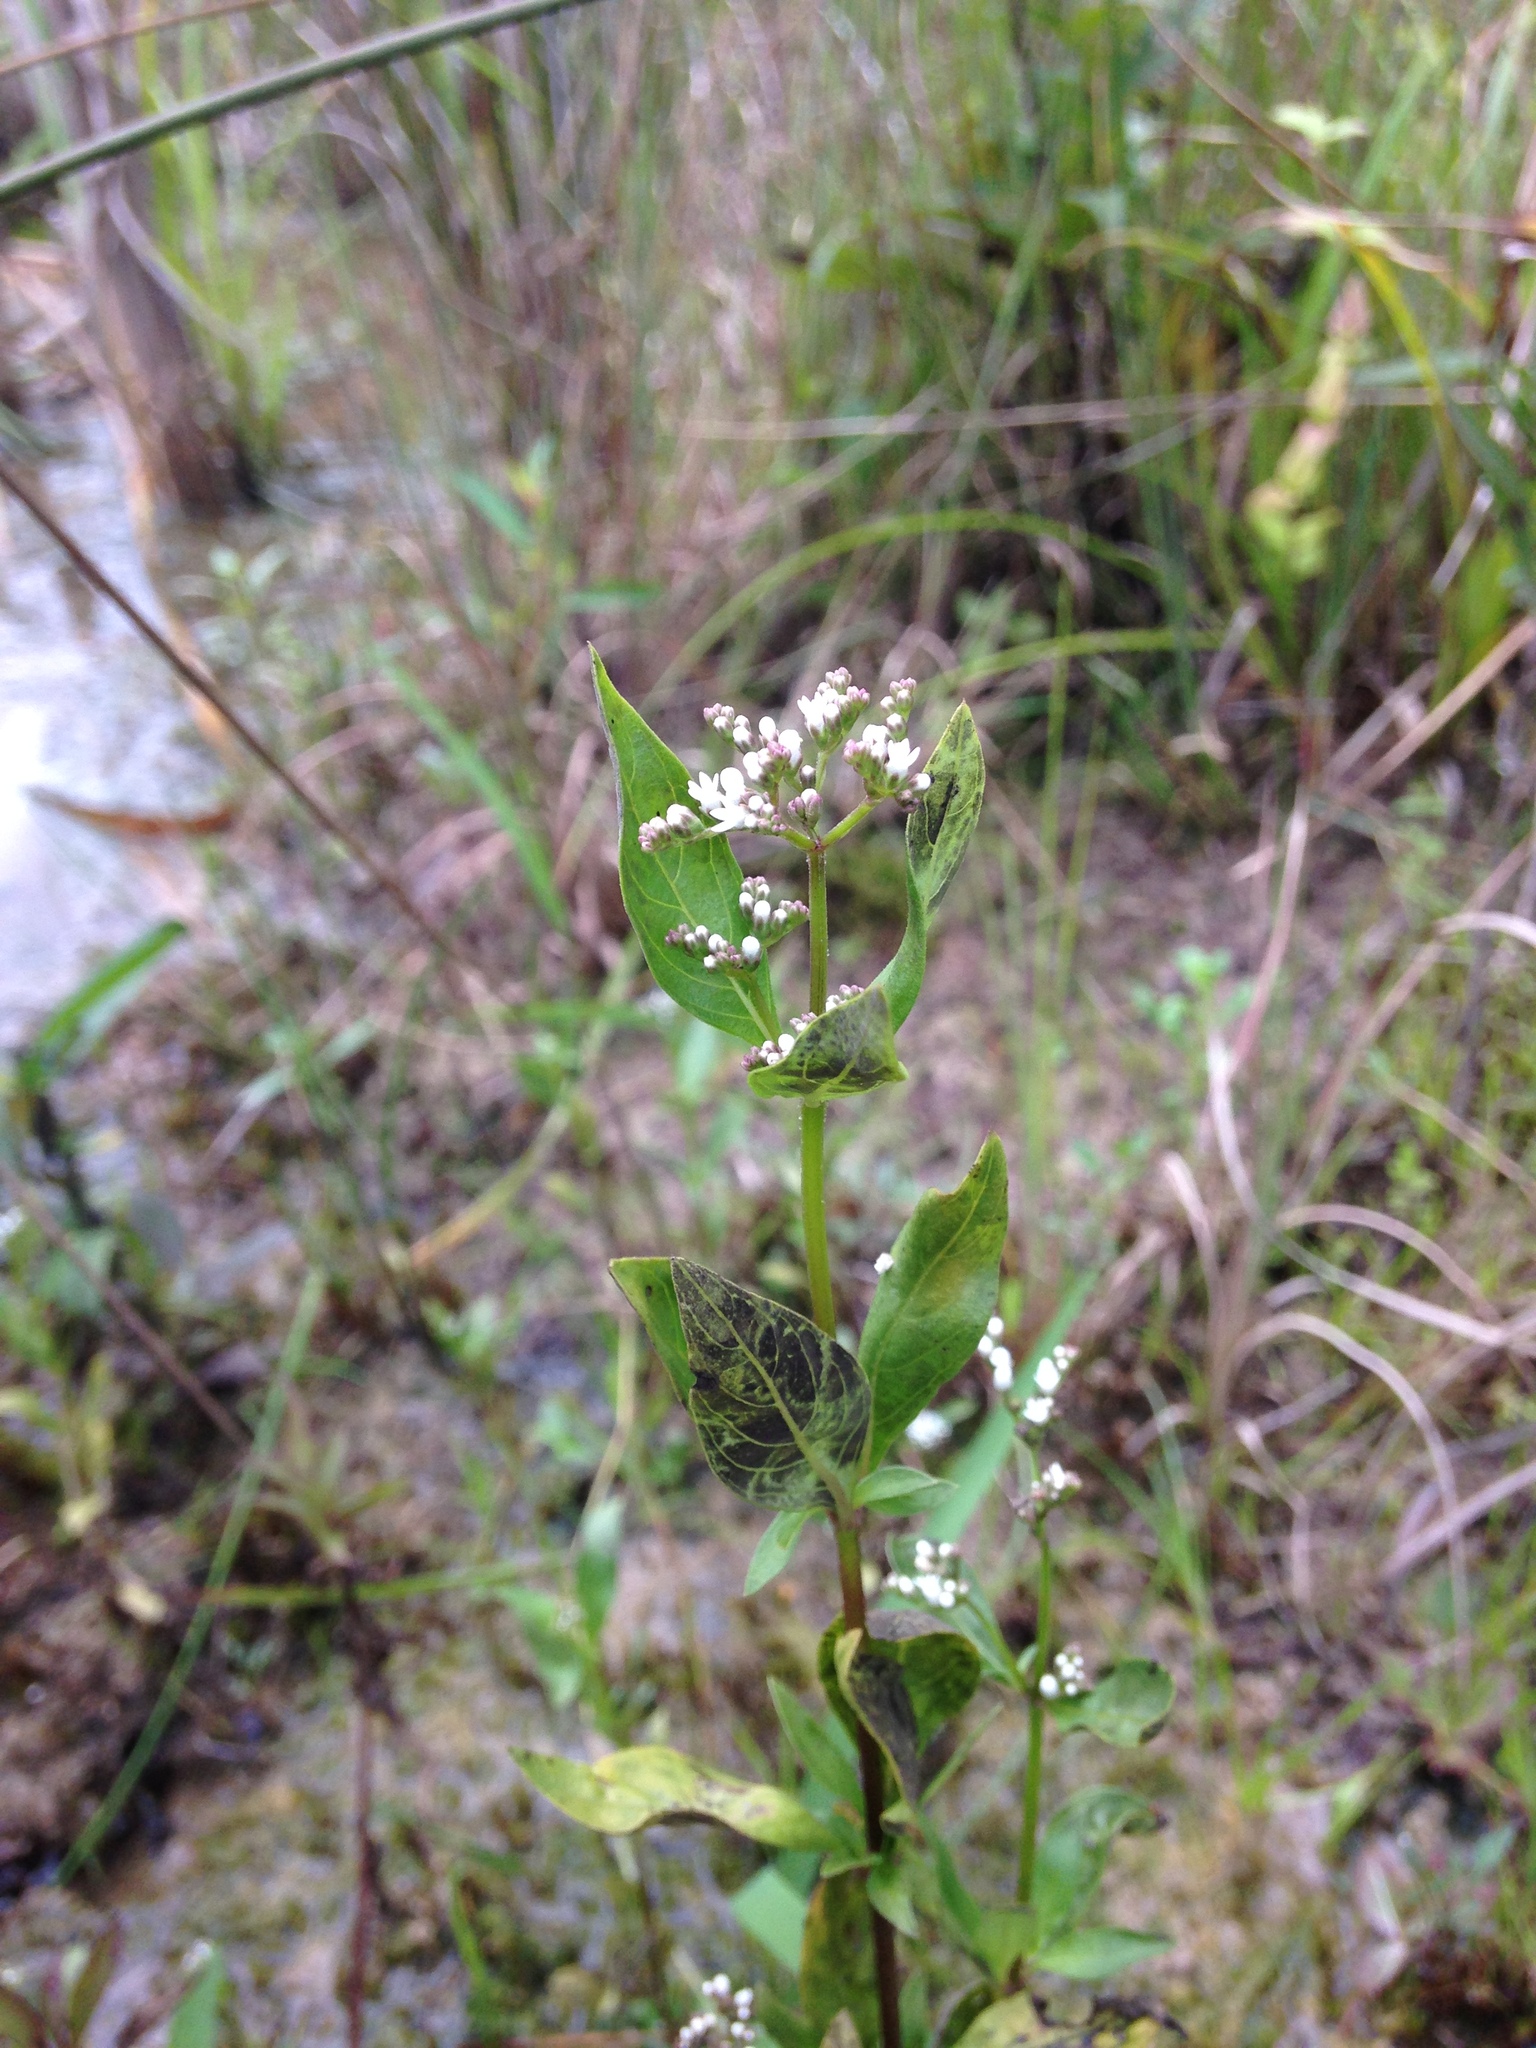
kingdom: Plantae
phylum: Tracheophyta
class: Magnoliopsida
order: Gentianales
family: Loganiaceae
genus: Mitreola
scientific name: Mitreola petiolata
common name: Lax hornpod
